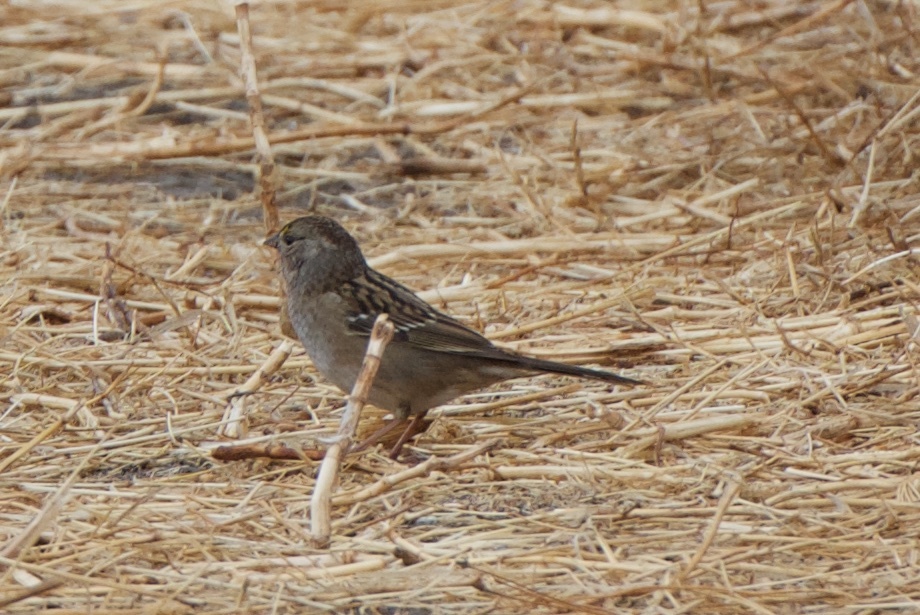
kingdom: Animalia
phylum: Chordata
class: Aves
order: Passeriformes
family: Passerellidae
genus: Zonotrichia
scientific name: Zonotrichia atricapilla
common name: Golden-crowned sparrow
